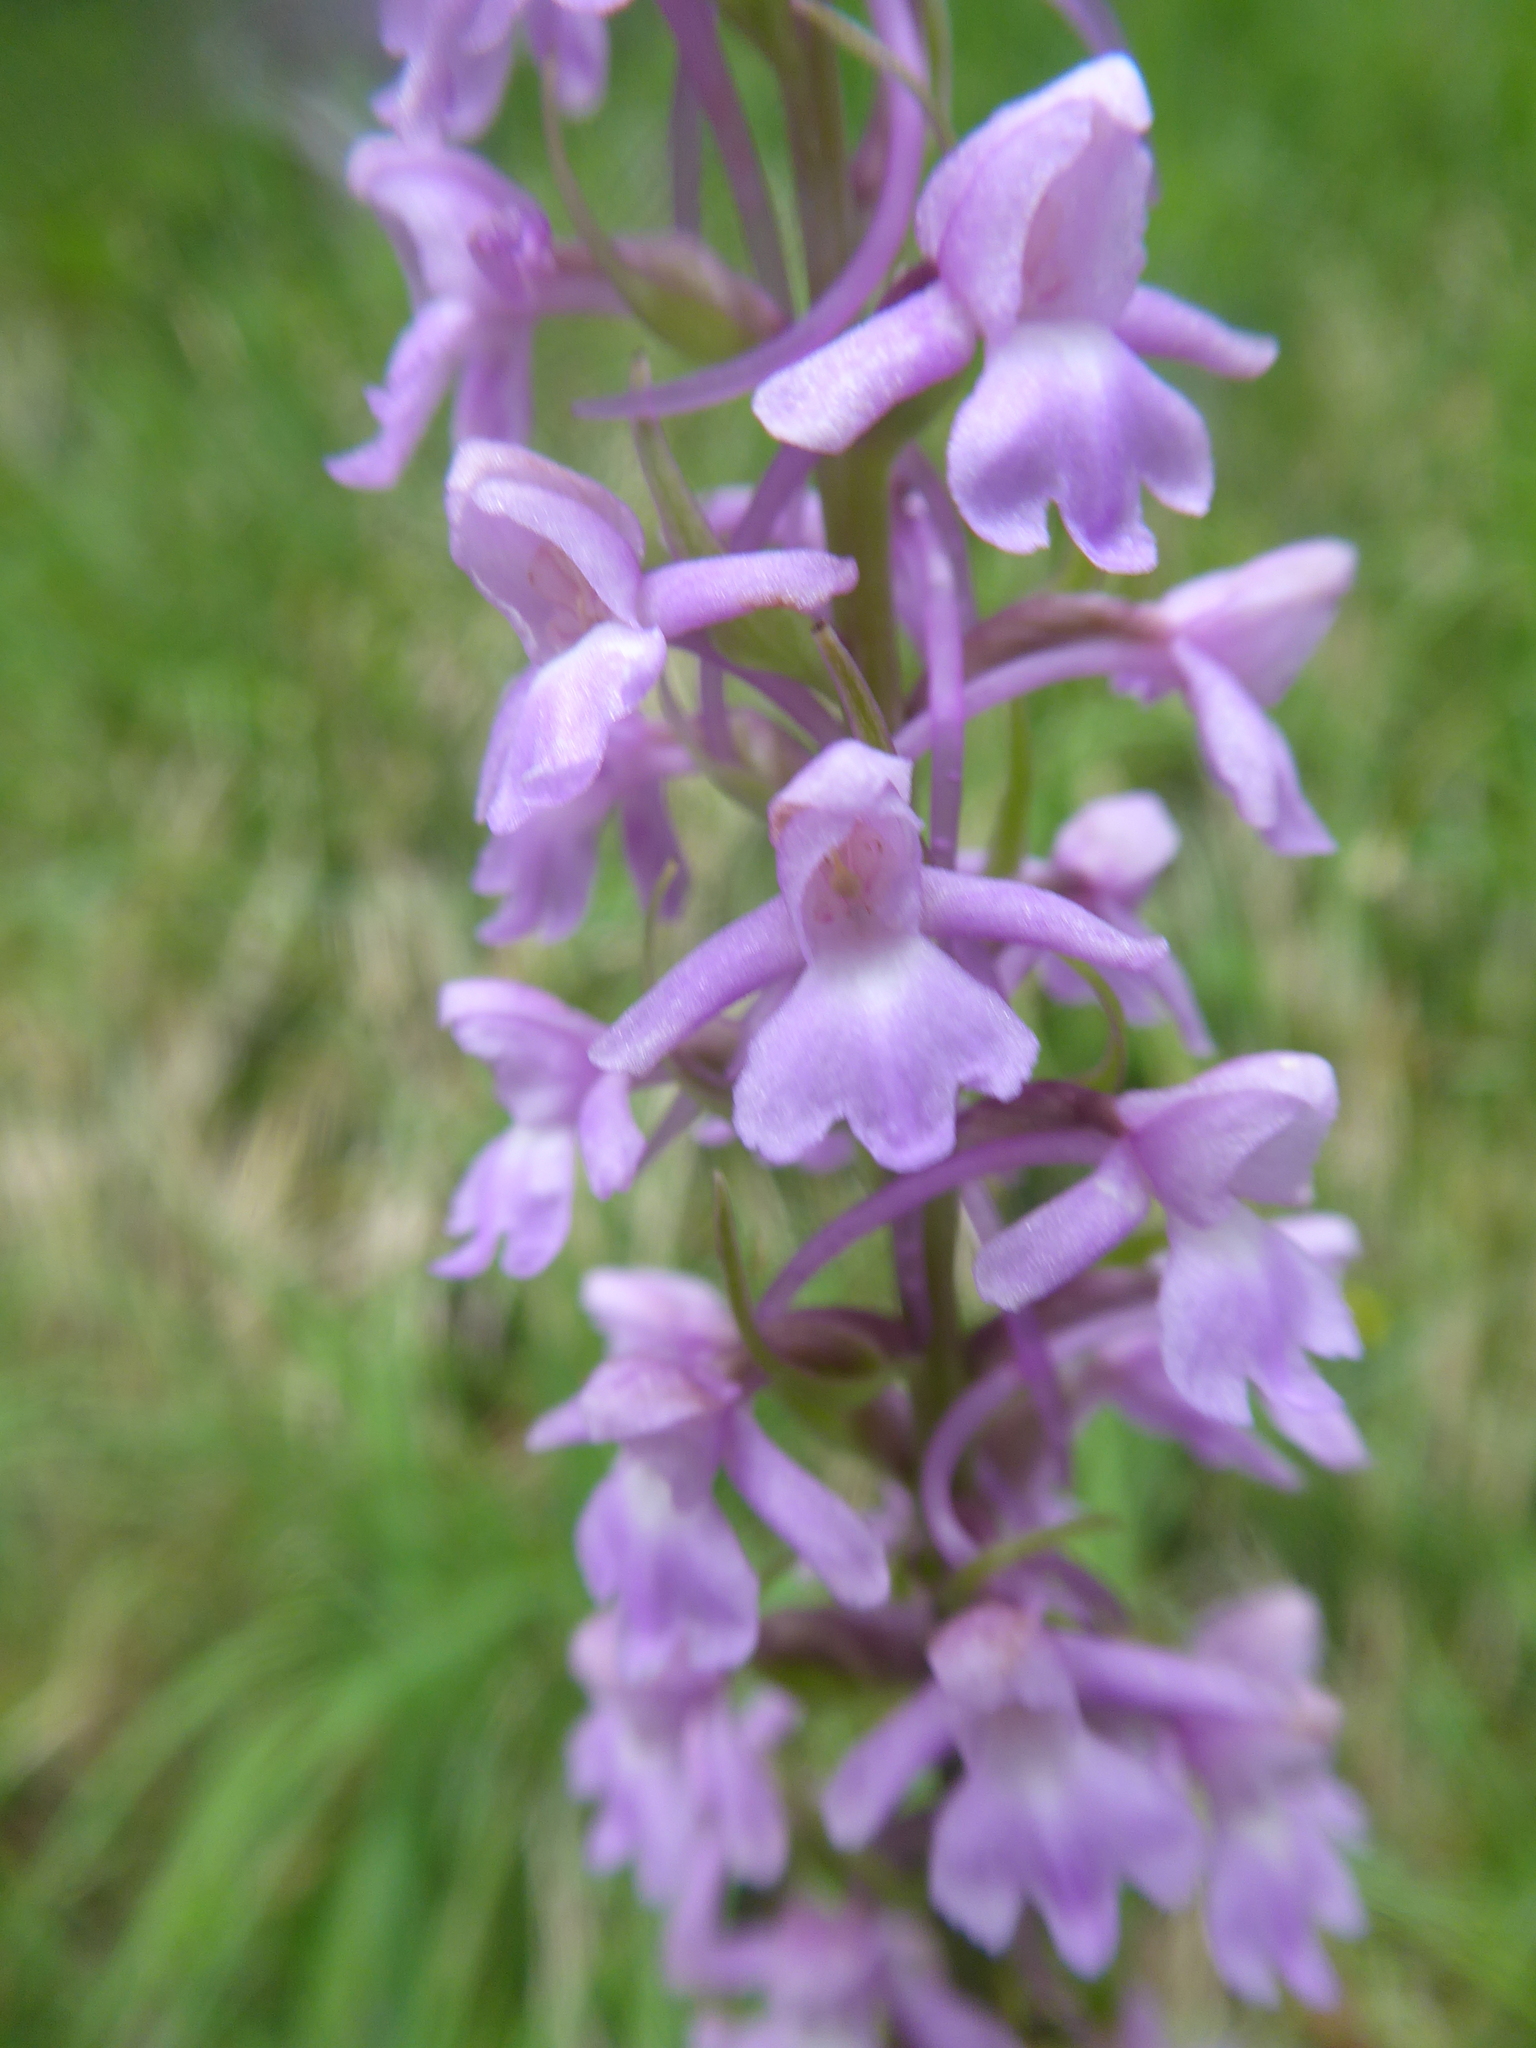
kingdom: Plantae
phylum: Tracheophyta
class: Liliopsida
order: Asparagales
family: Orchidaceae
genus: Gymnadenia
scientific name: Gymnadenia conopsea
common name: Fragrant orchid
